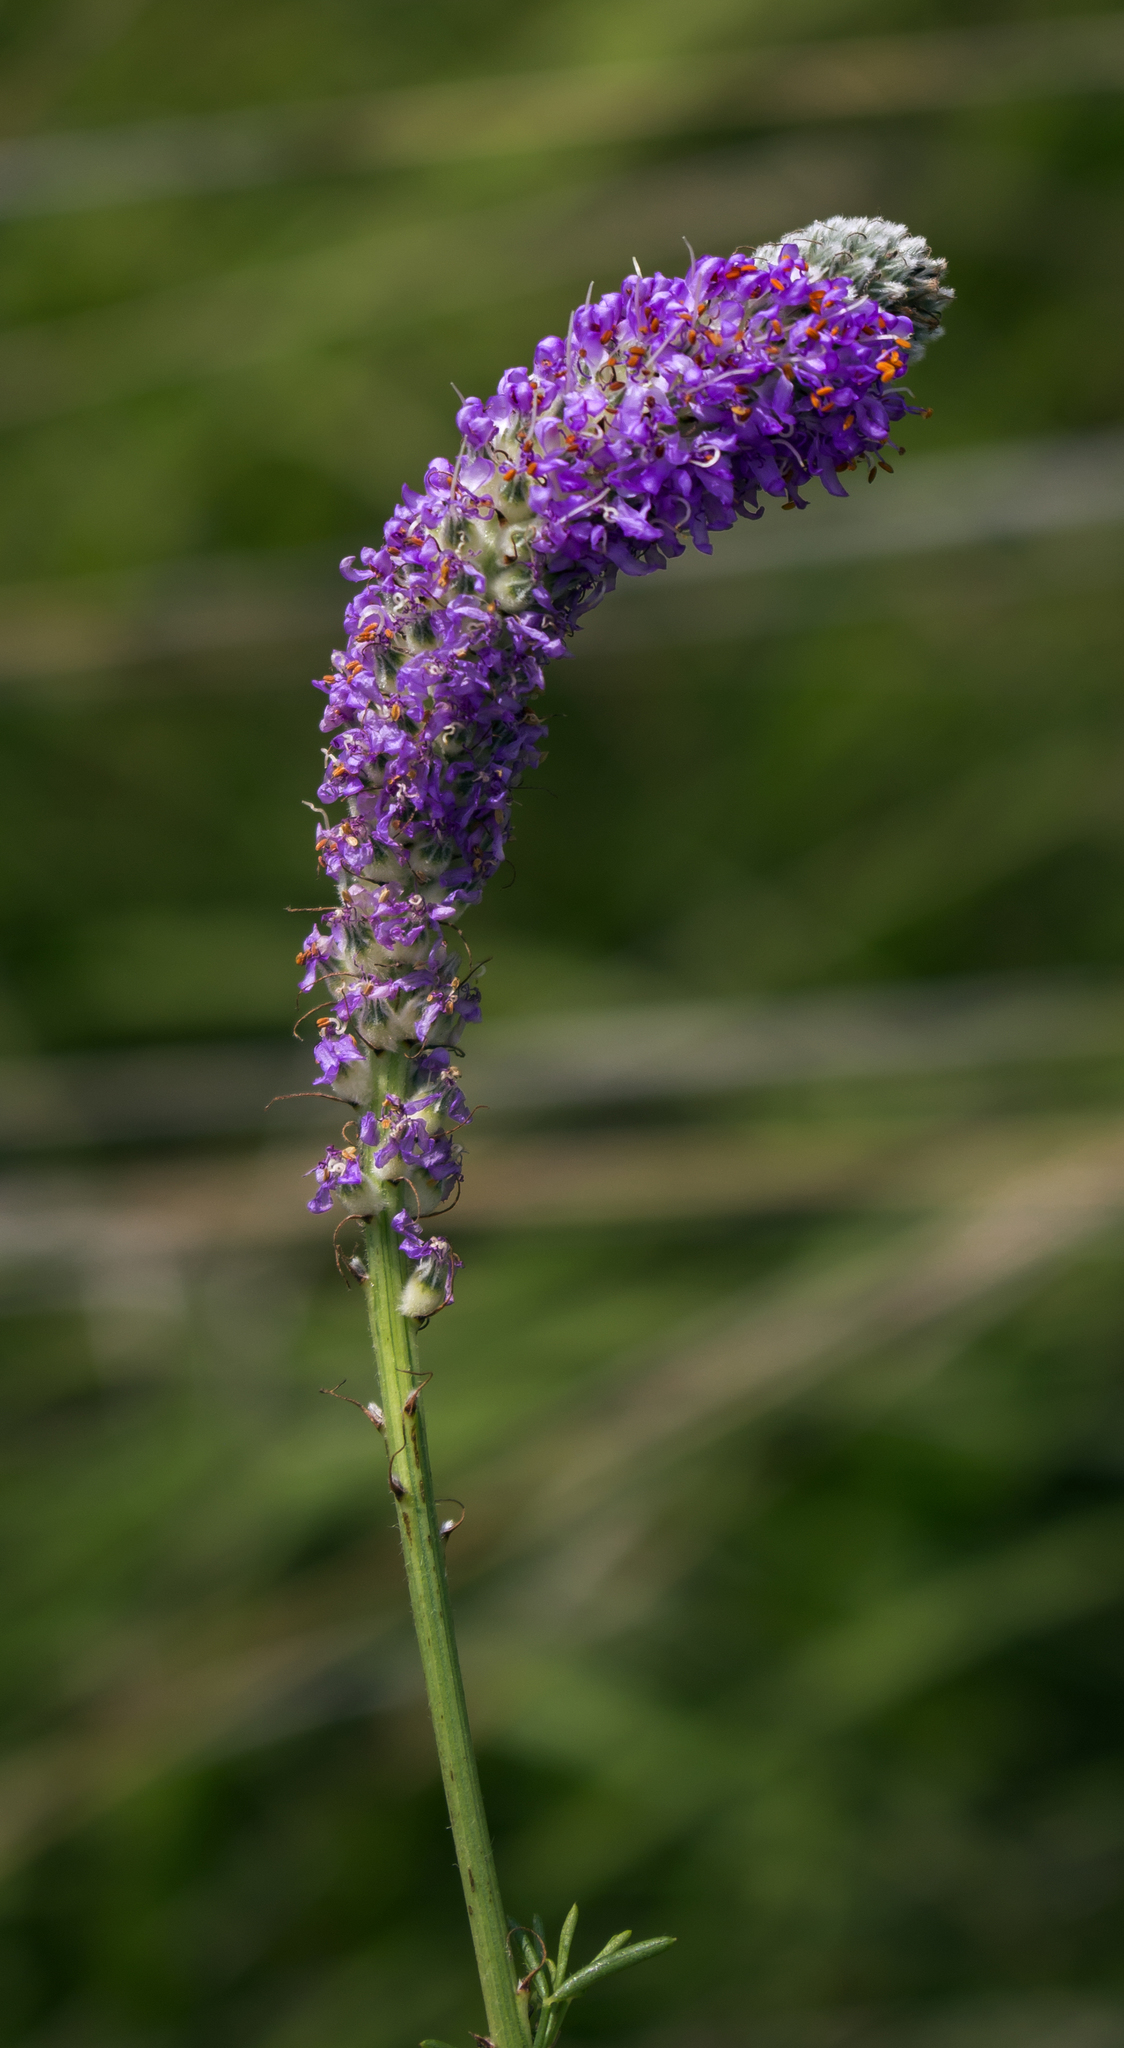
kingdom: Plantae
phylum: Tracheophyta
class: Magnoliopsida
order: Fabales
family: Fabaceae
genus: Dalea
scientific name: Dalea purpurea
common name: Purple prairie-clover
